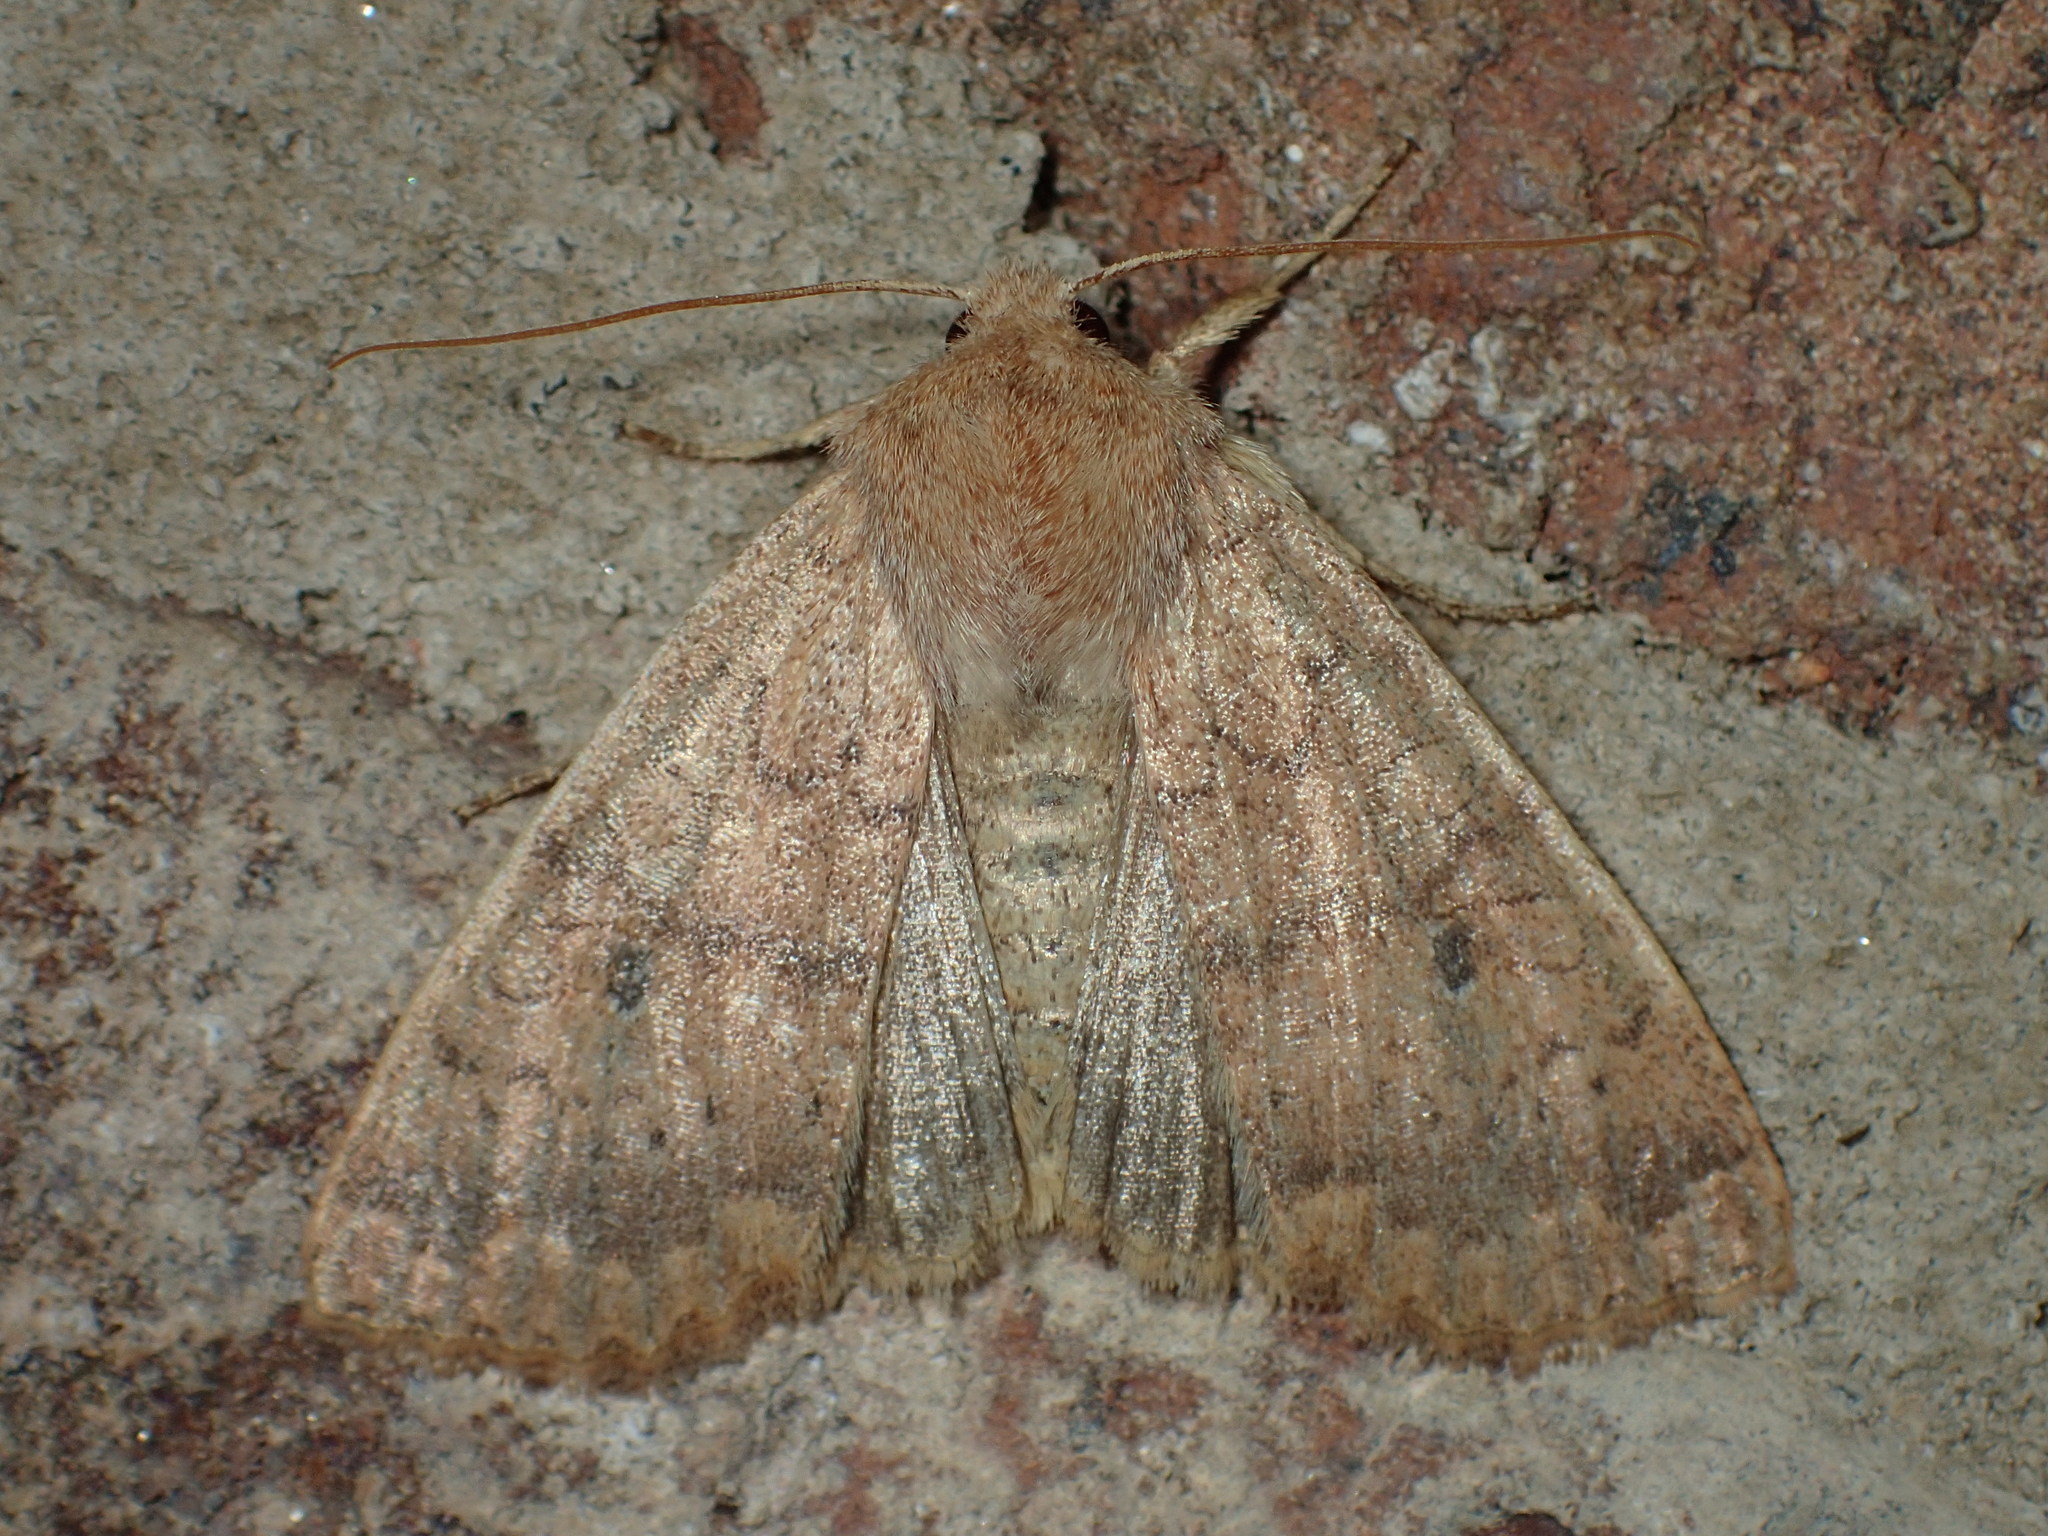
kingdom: Animalia
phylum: Arthropoda
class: Insecta
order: Lepidoptera
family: Noctuidae
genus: Agrochola
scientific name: Agrochola bicolorago
